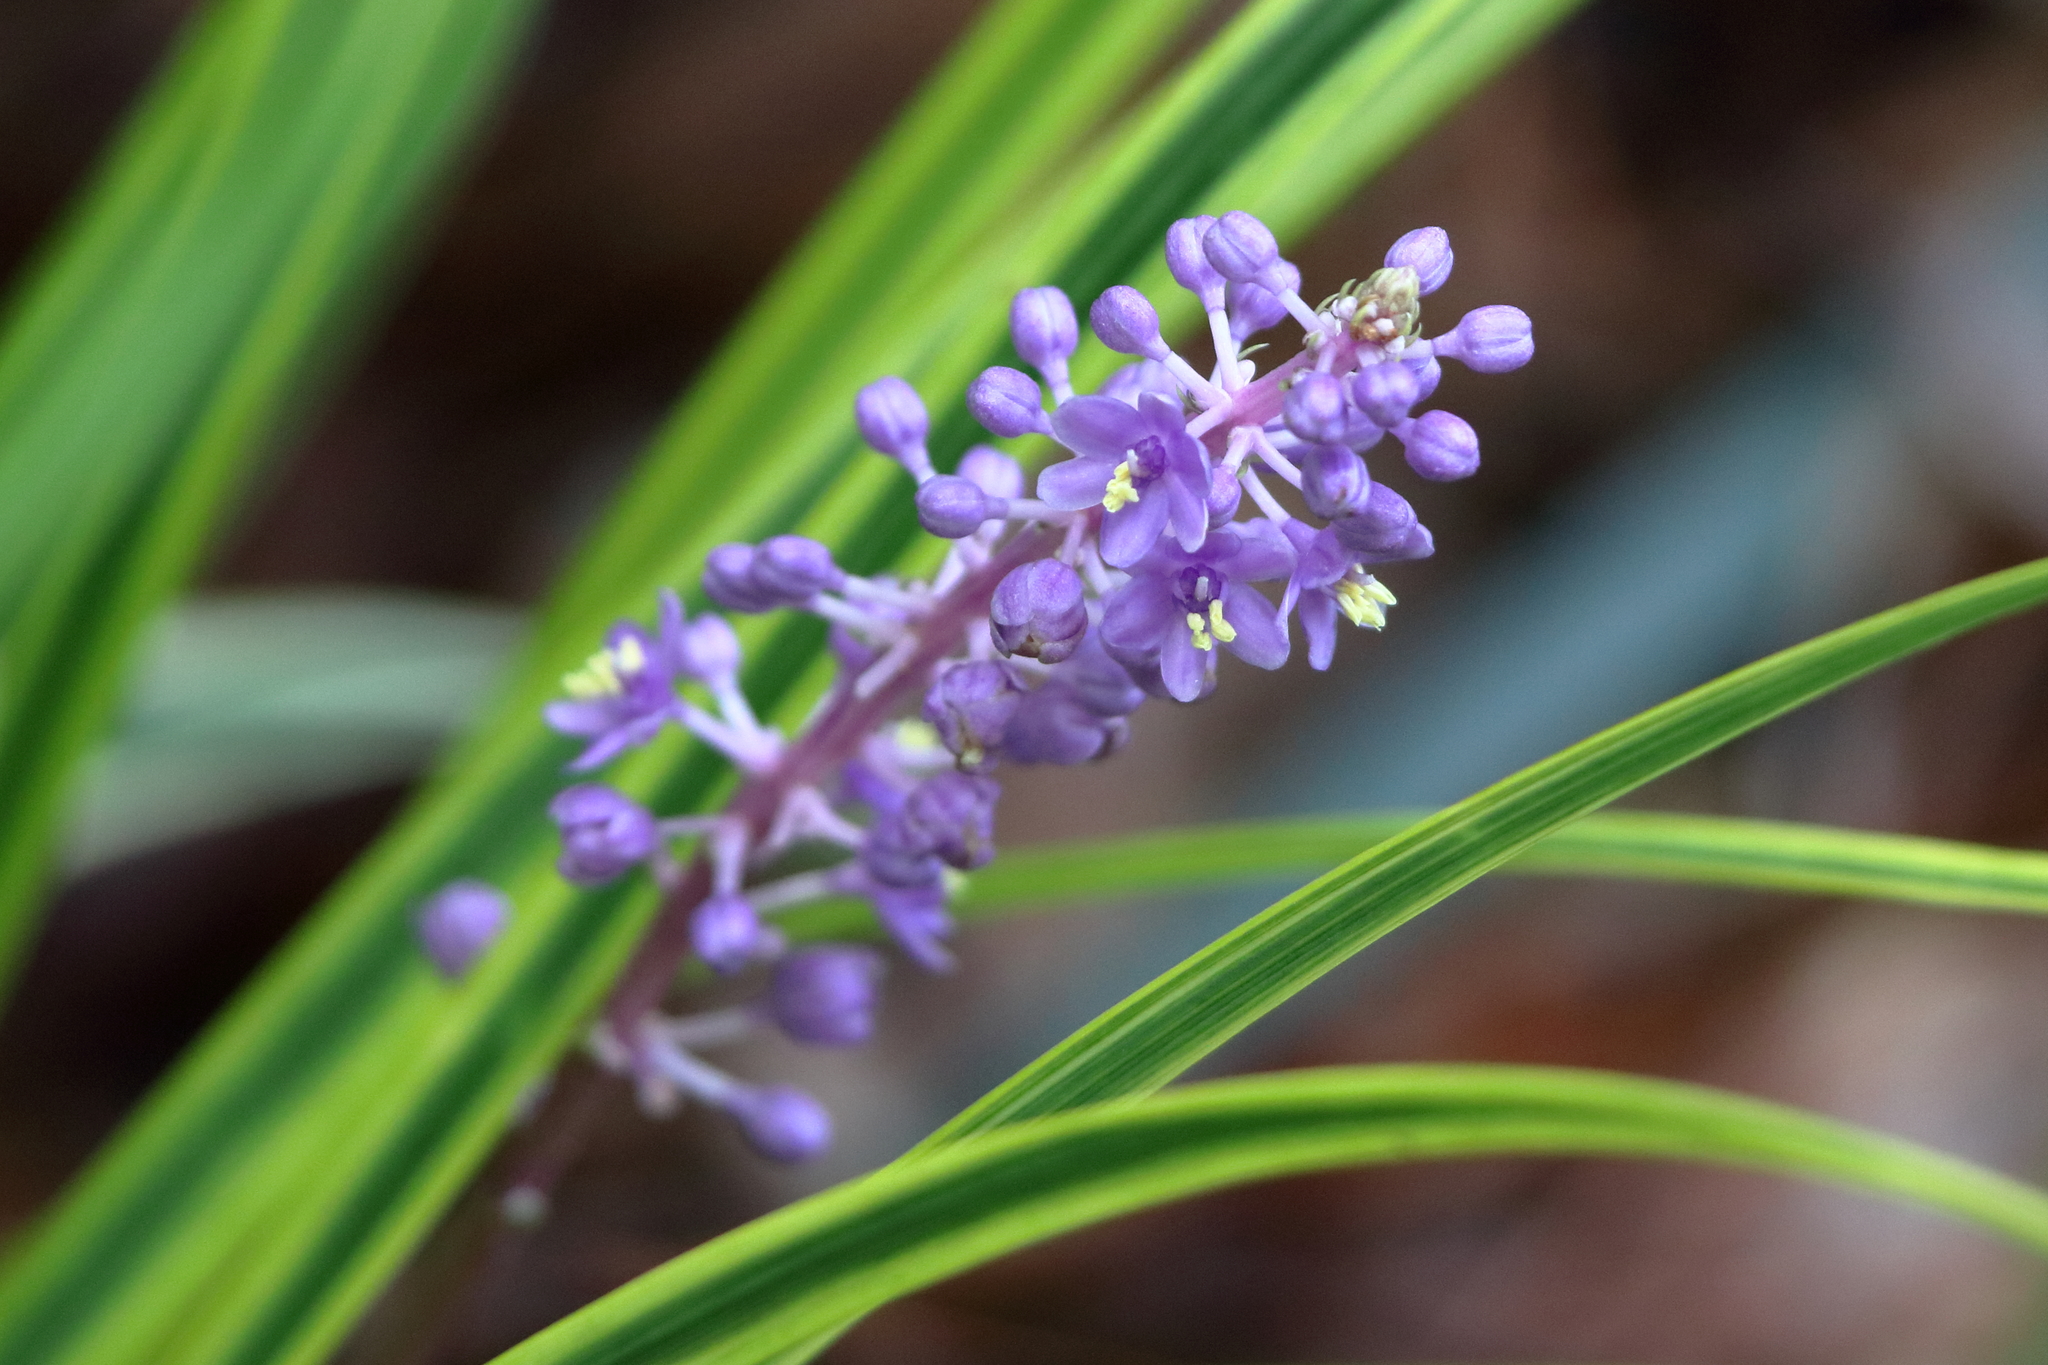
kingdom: Plantae
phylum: Tracheophyta
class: Liliopsida
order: Asparagales
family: Asparagaceae
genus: Liriope
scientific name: Liriope muscari
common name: Big blue lilyturf
